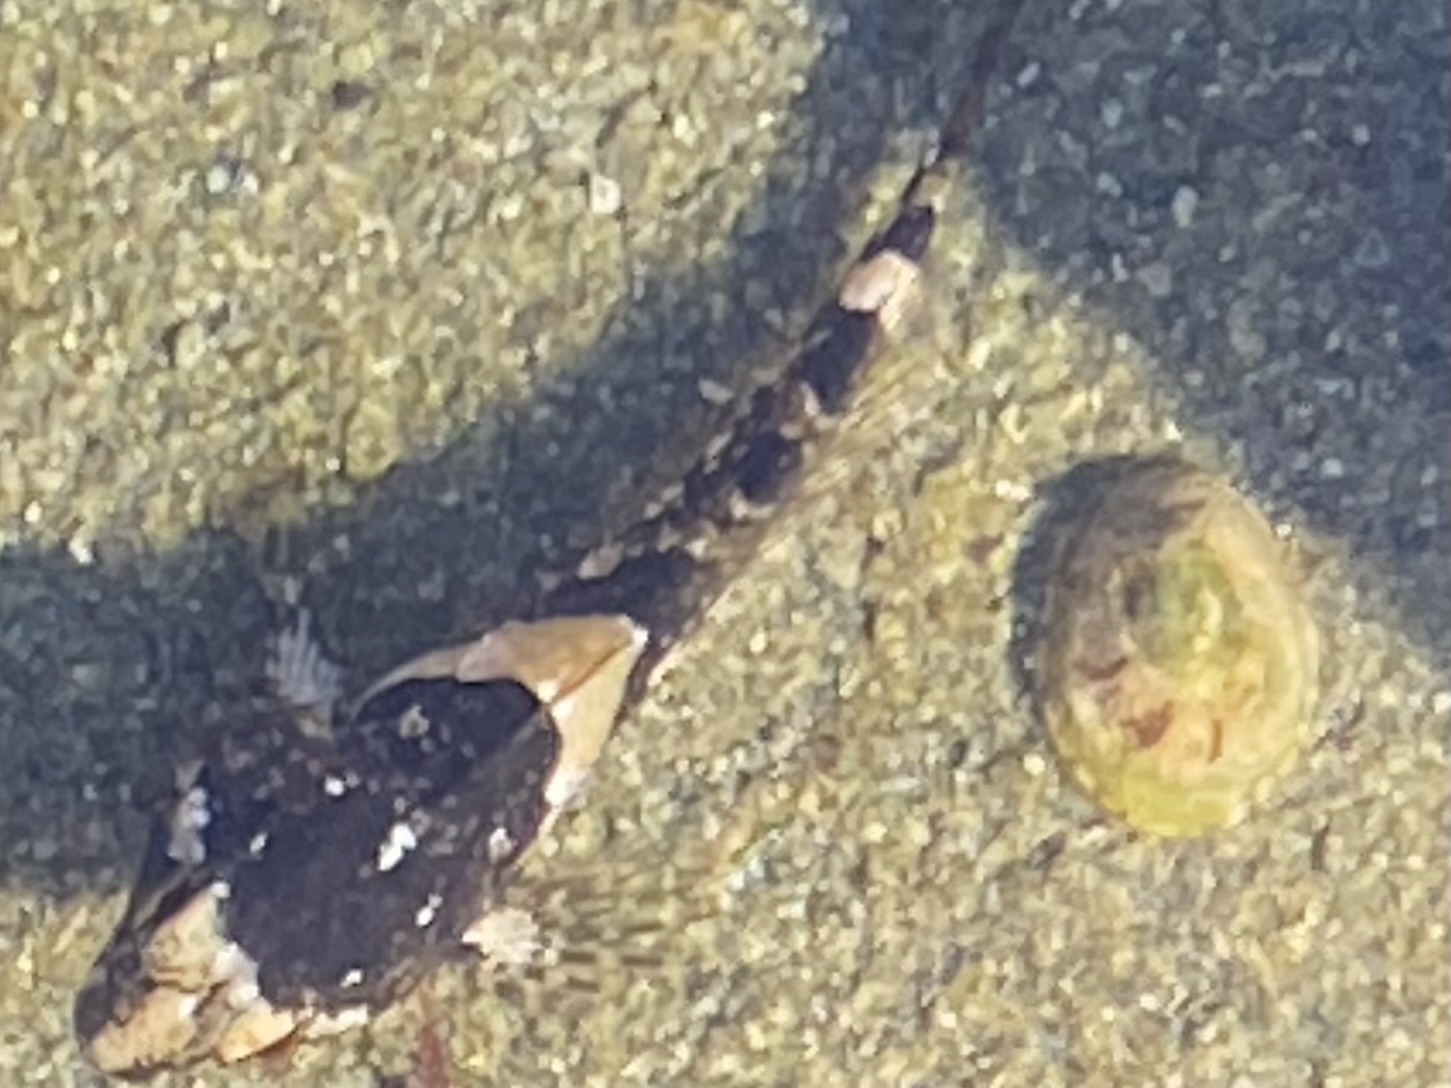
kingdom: Animalia
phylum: Chordata
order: Scorpaeniformes
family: Cottidae
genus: Oligocottus
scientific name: Oligocottus maculosus
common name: Tidepool sculpin
